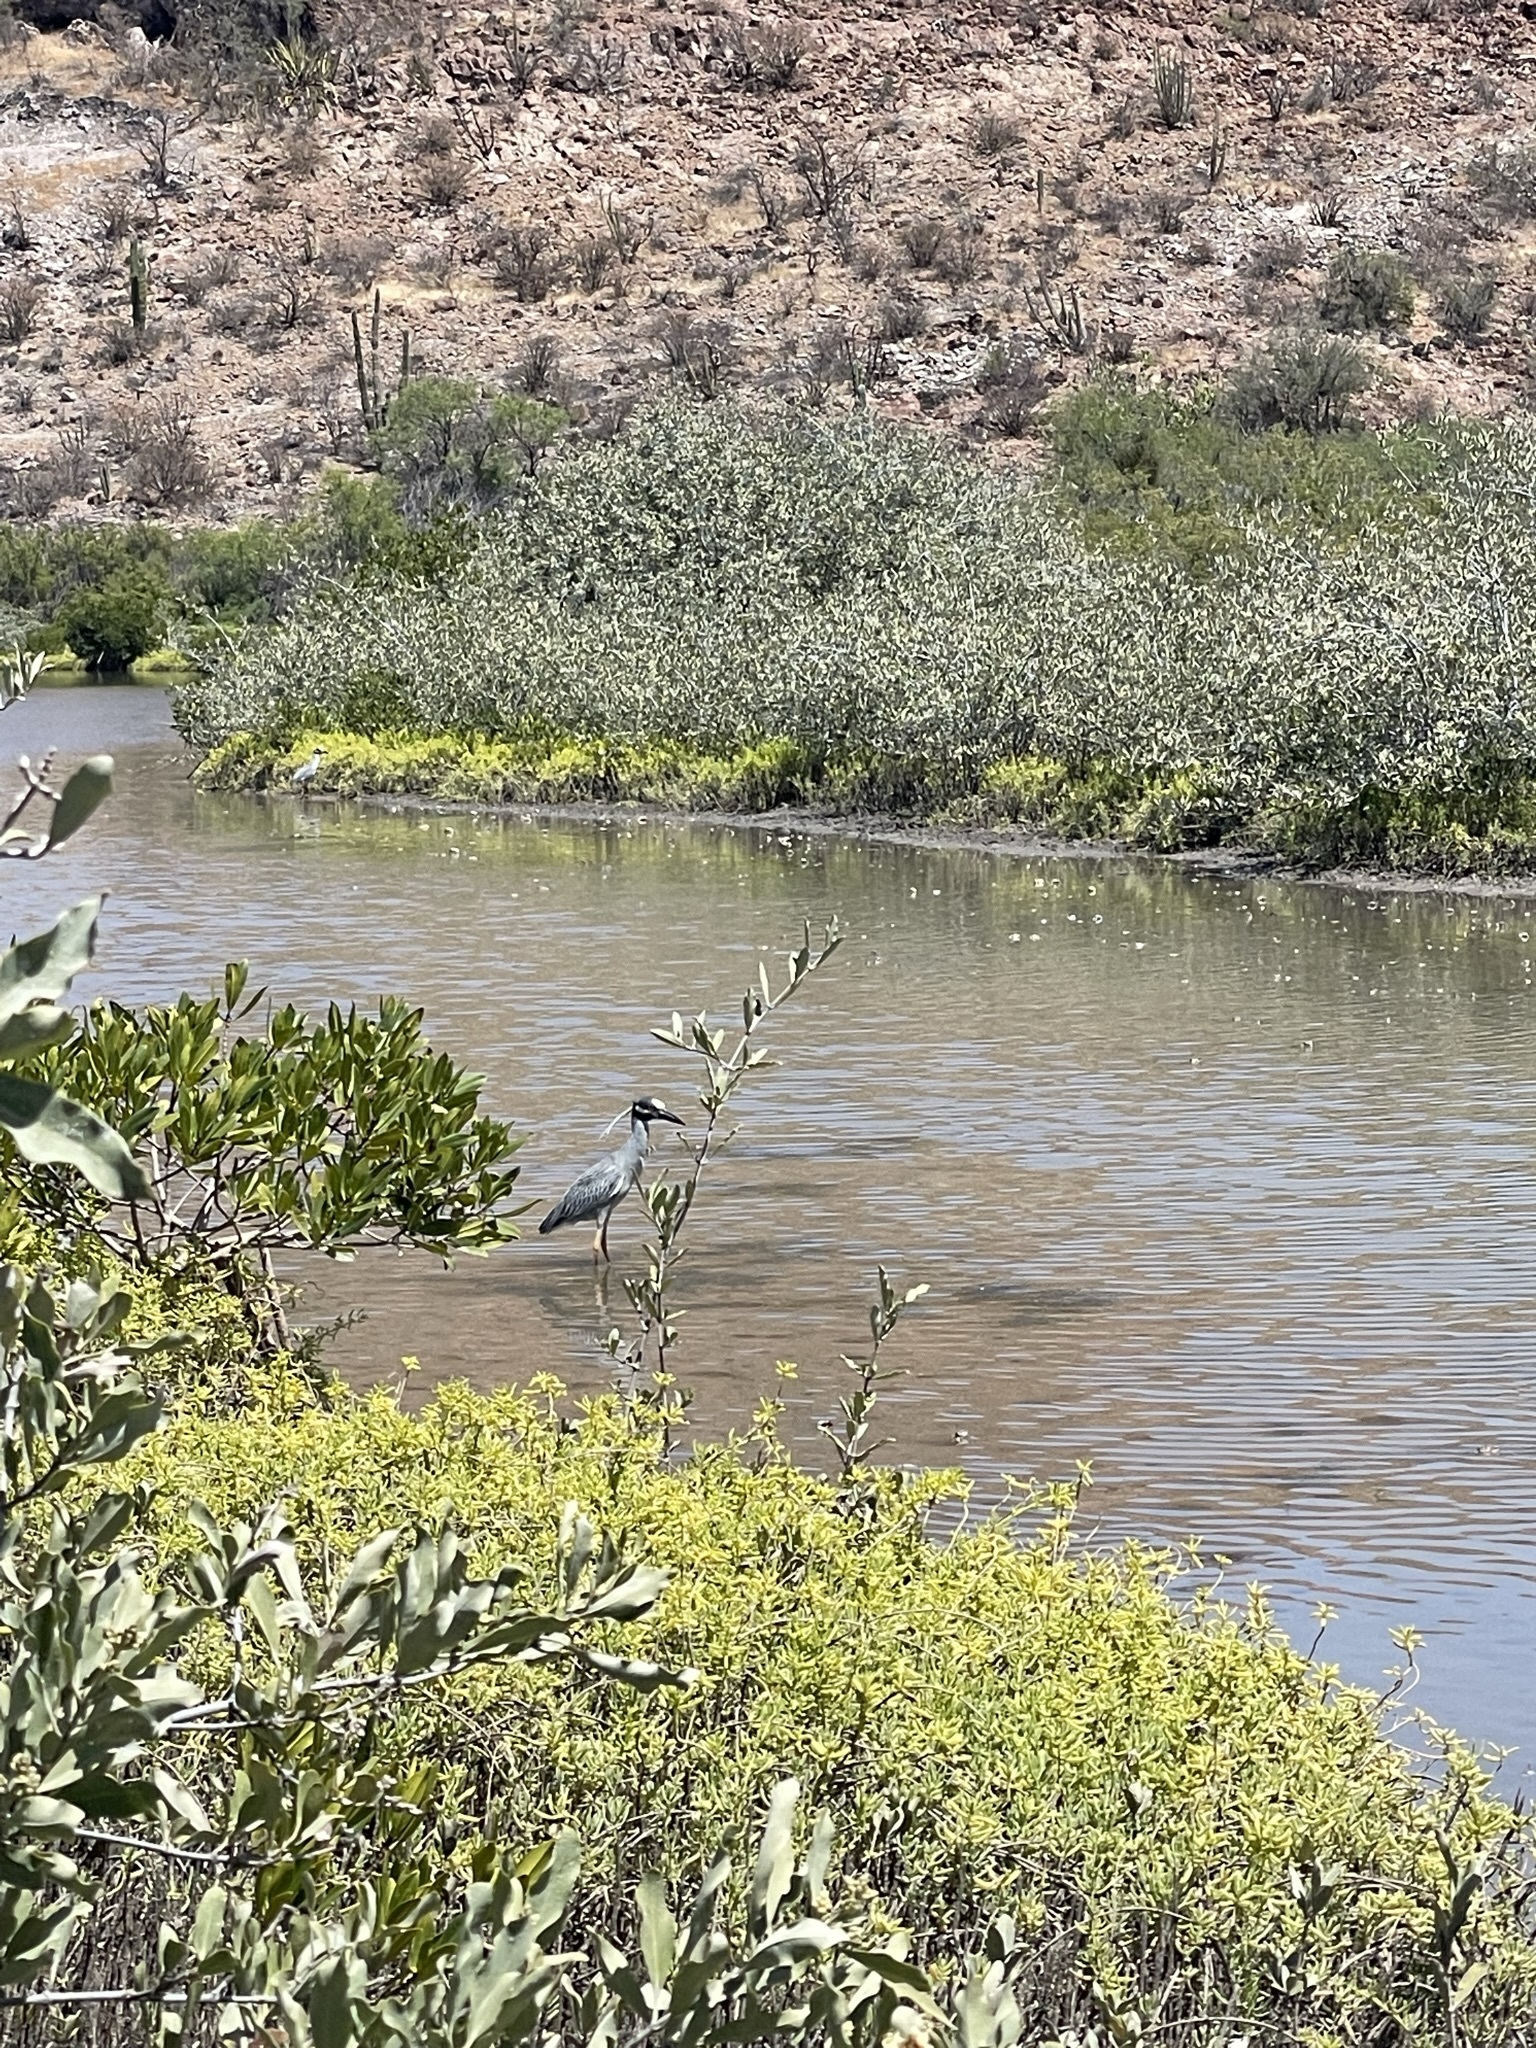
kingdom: Animalia
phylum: Chordata
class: Aves
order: Pelecaniformes
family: Ardeidae
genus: Nyctanassa
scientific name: Nyctanassa violacea
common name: Yellow-crowned night heron
